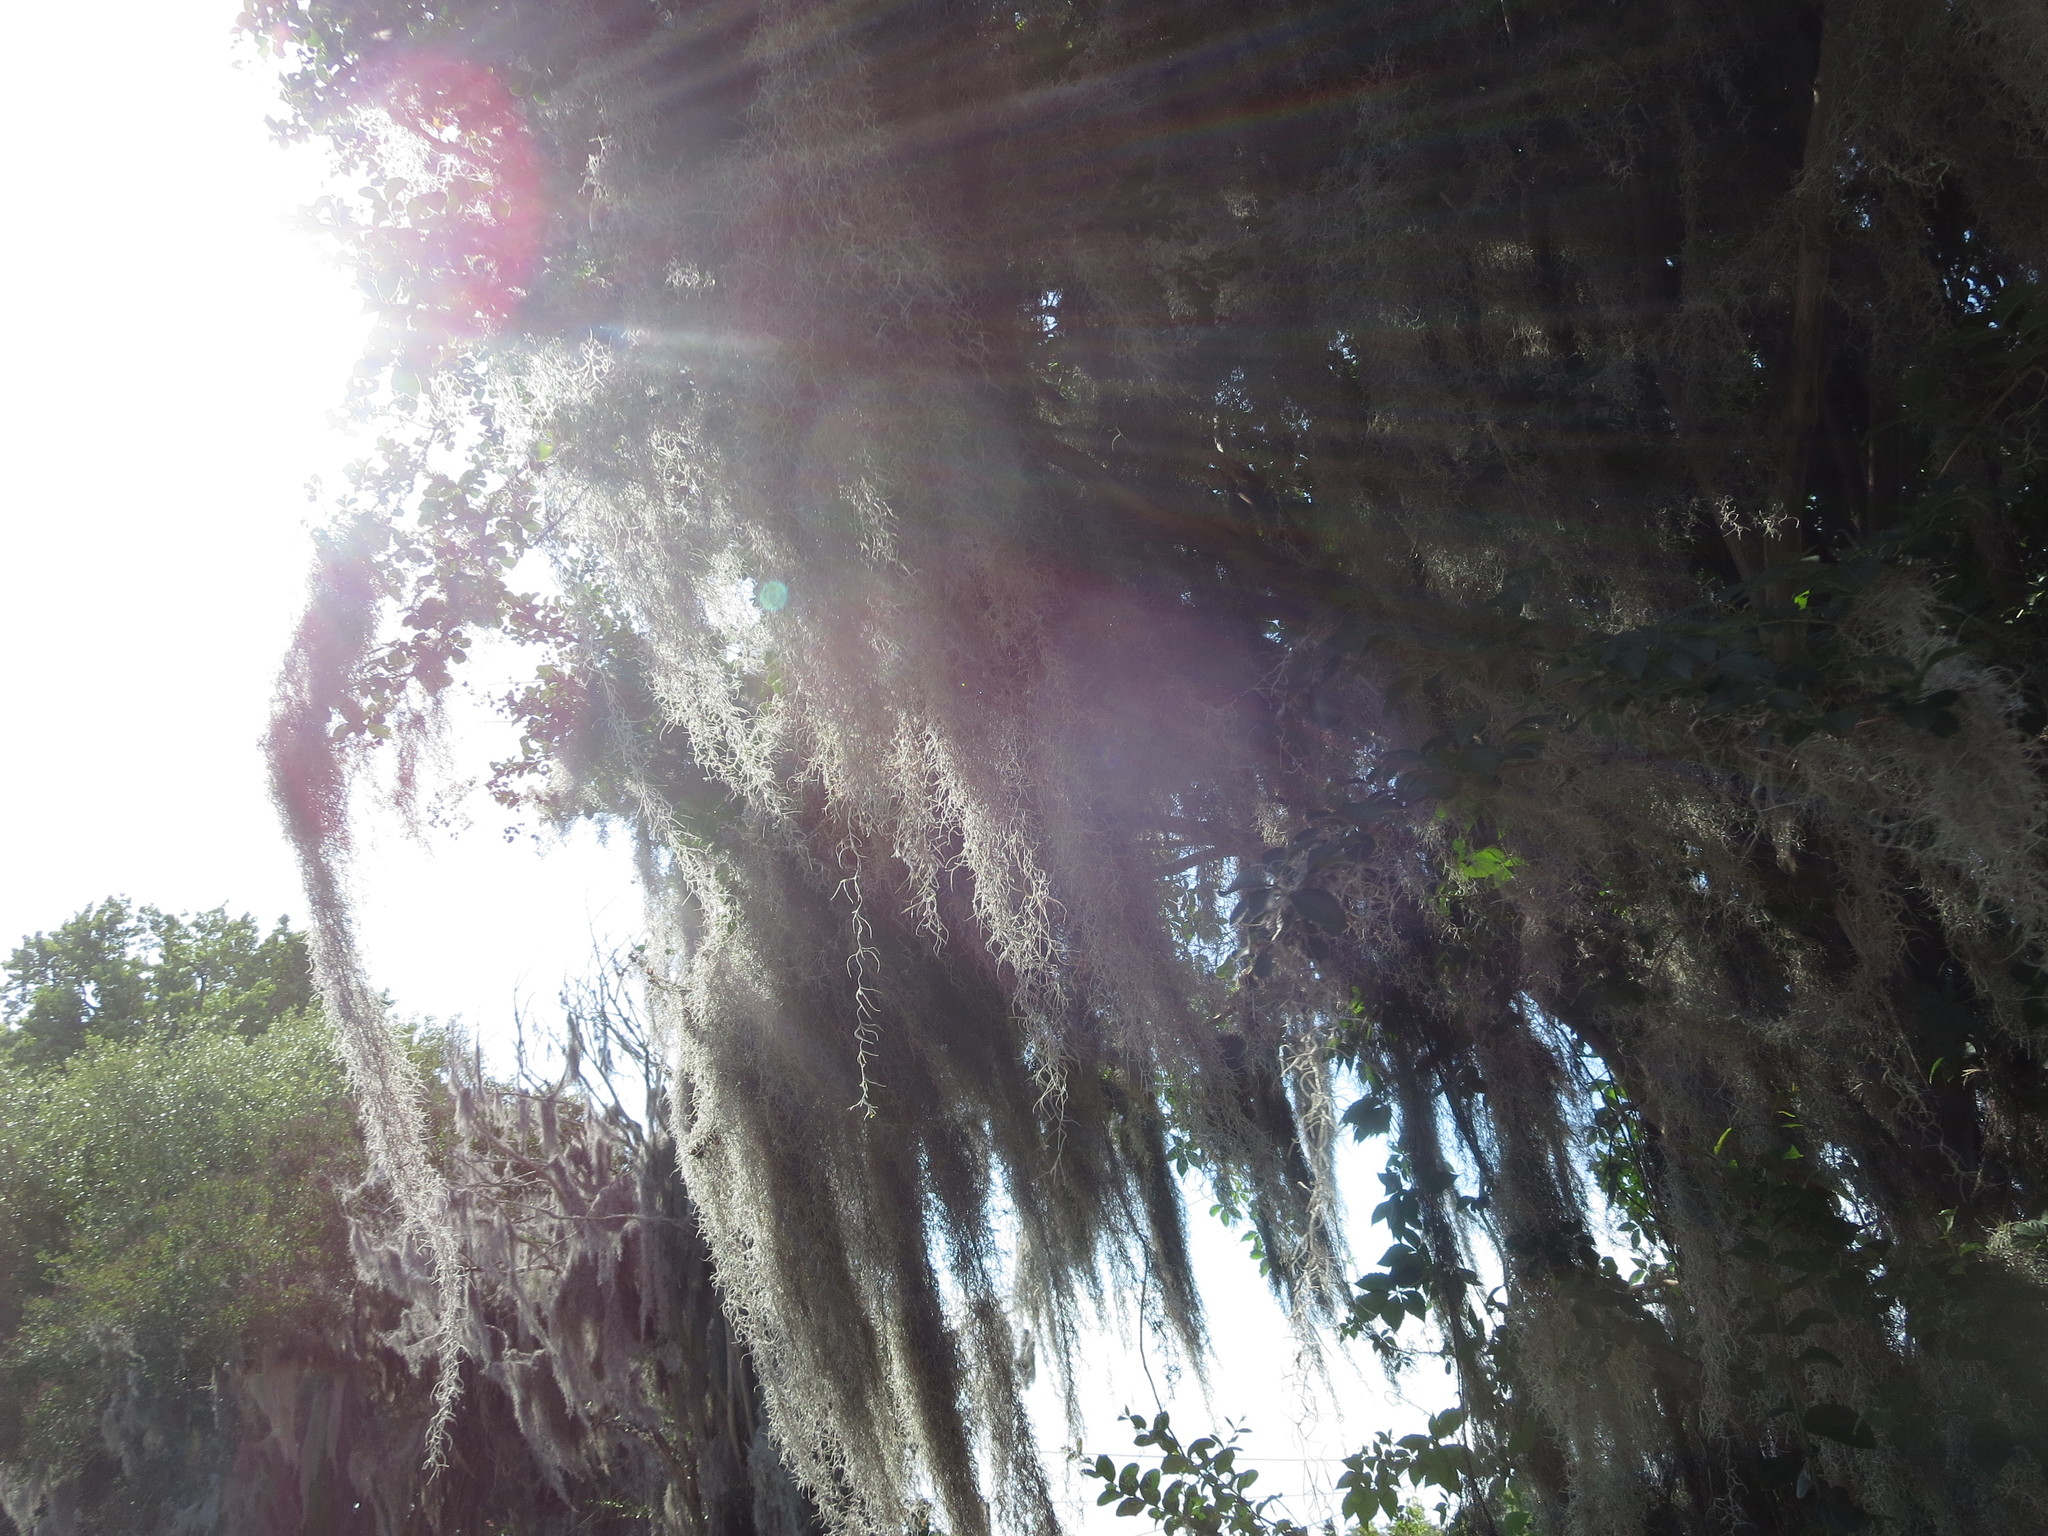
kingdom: Plantae
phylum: Tracheophyta
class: Liliopsida
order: Poales
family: Bromeliaceae
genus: Tillandsia
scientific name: Tillandsia usneoides
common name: Spanish moss
